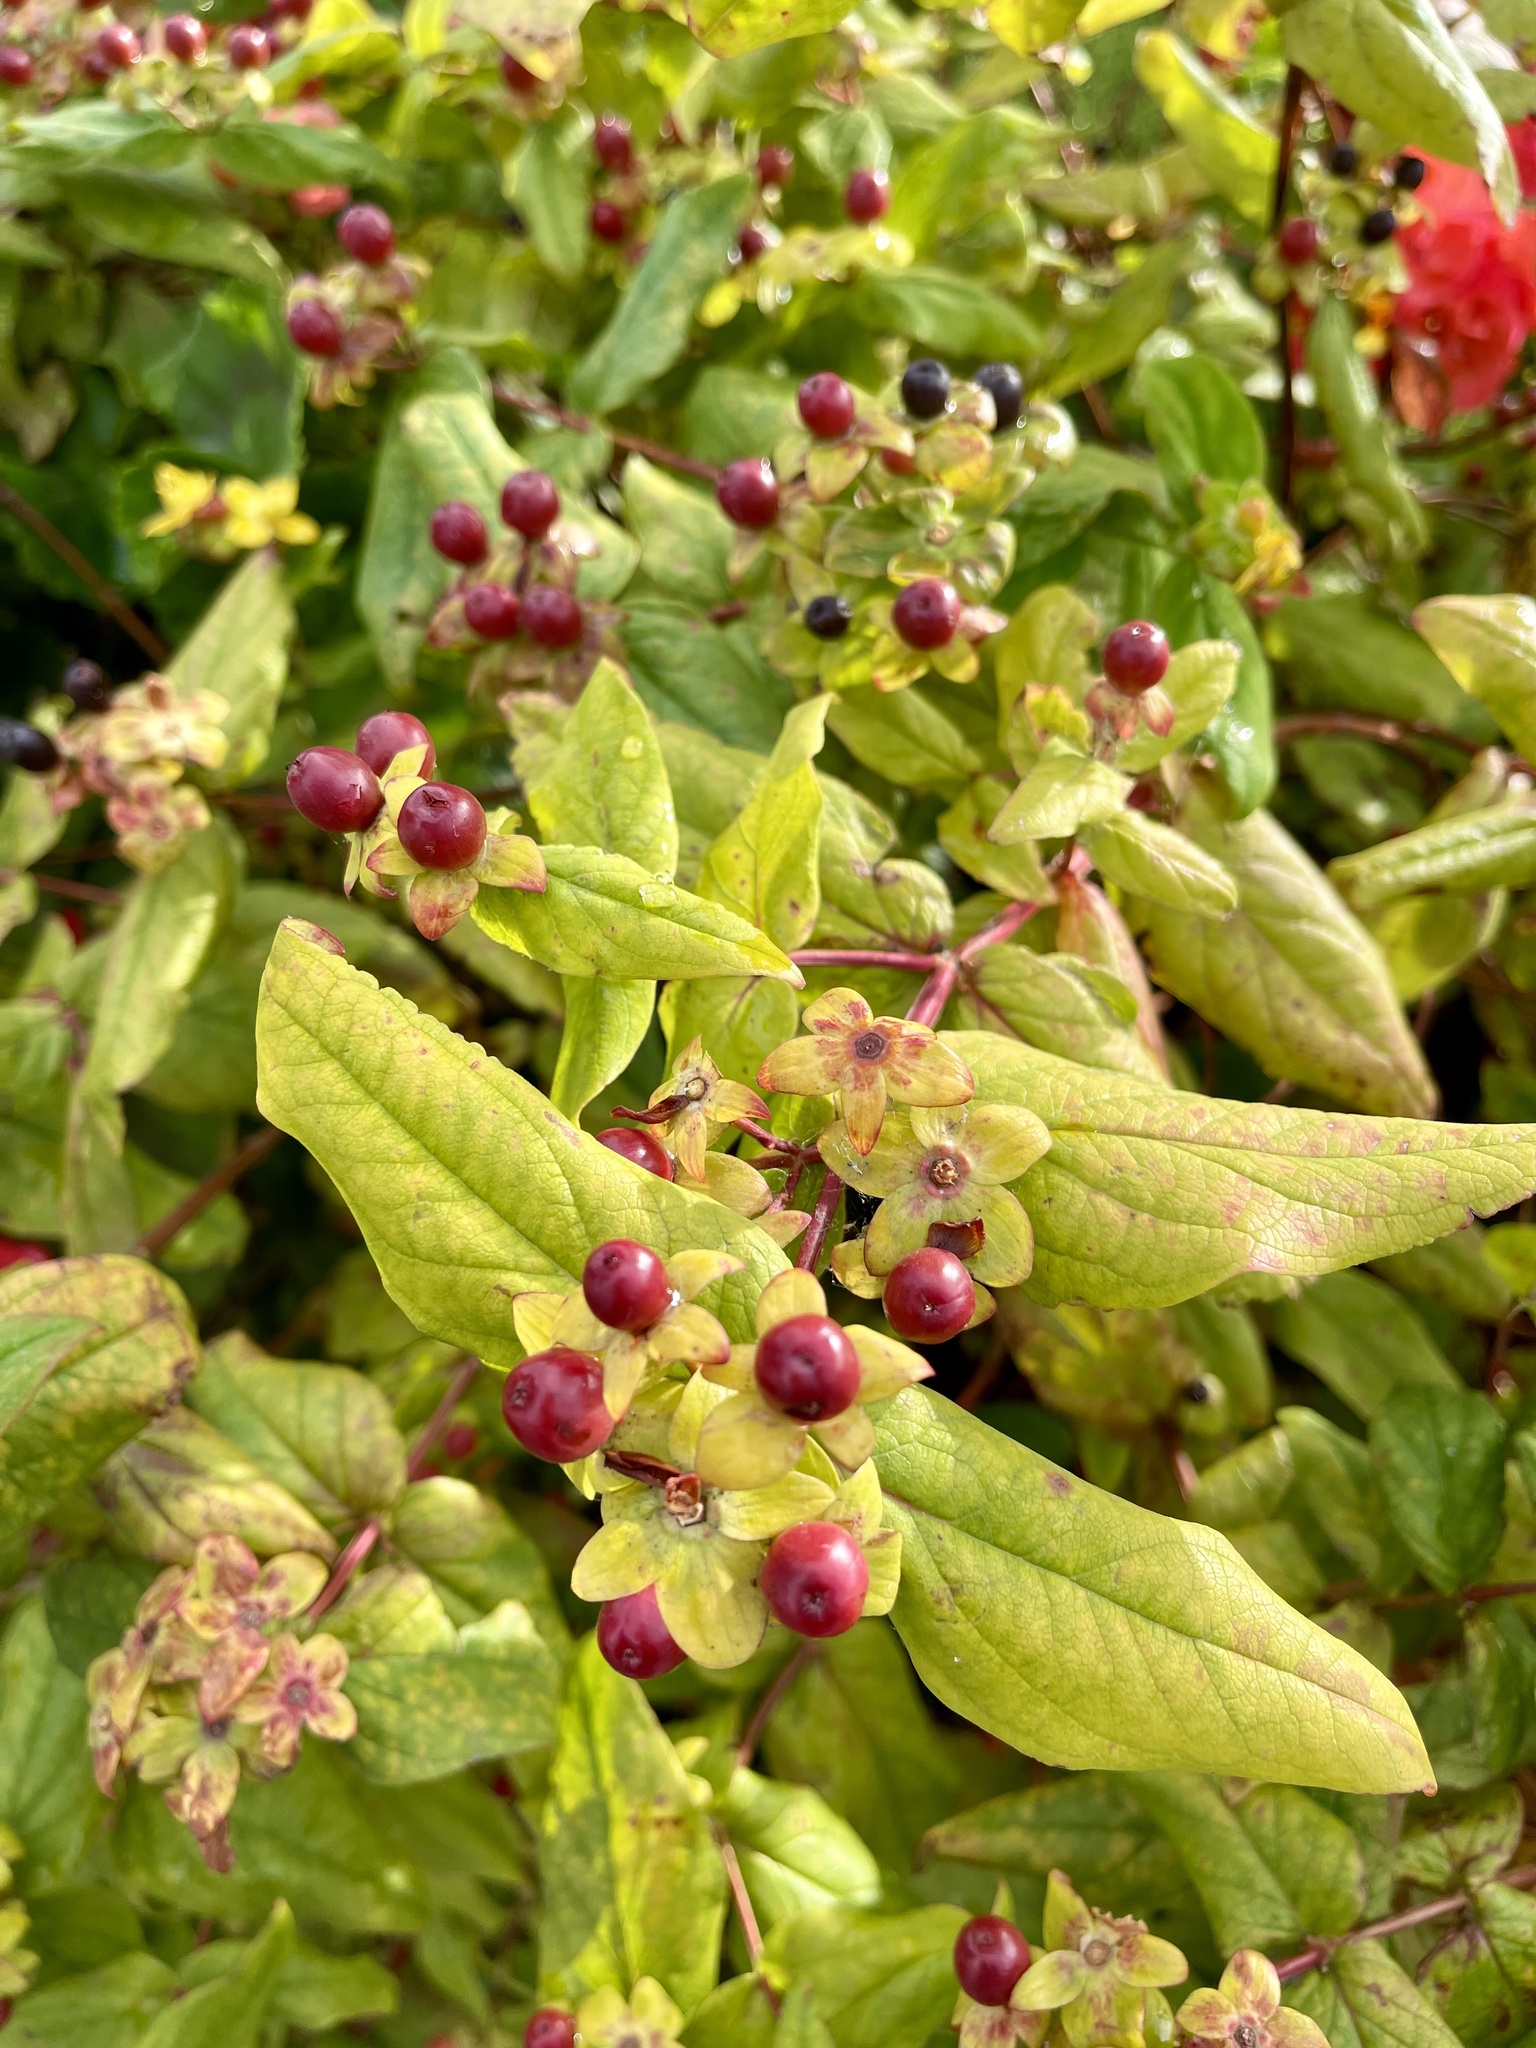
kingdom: Plantae
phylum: Tracheophyta
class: Magnoliopsida
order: Malpighiales
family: Hypericaceae
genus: Hypericum
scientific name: Hypericum androsaemum
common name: Sweet-amber
